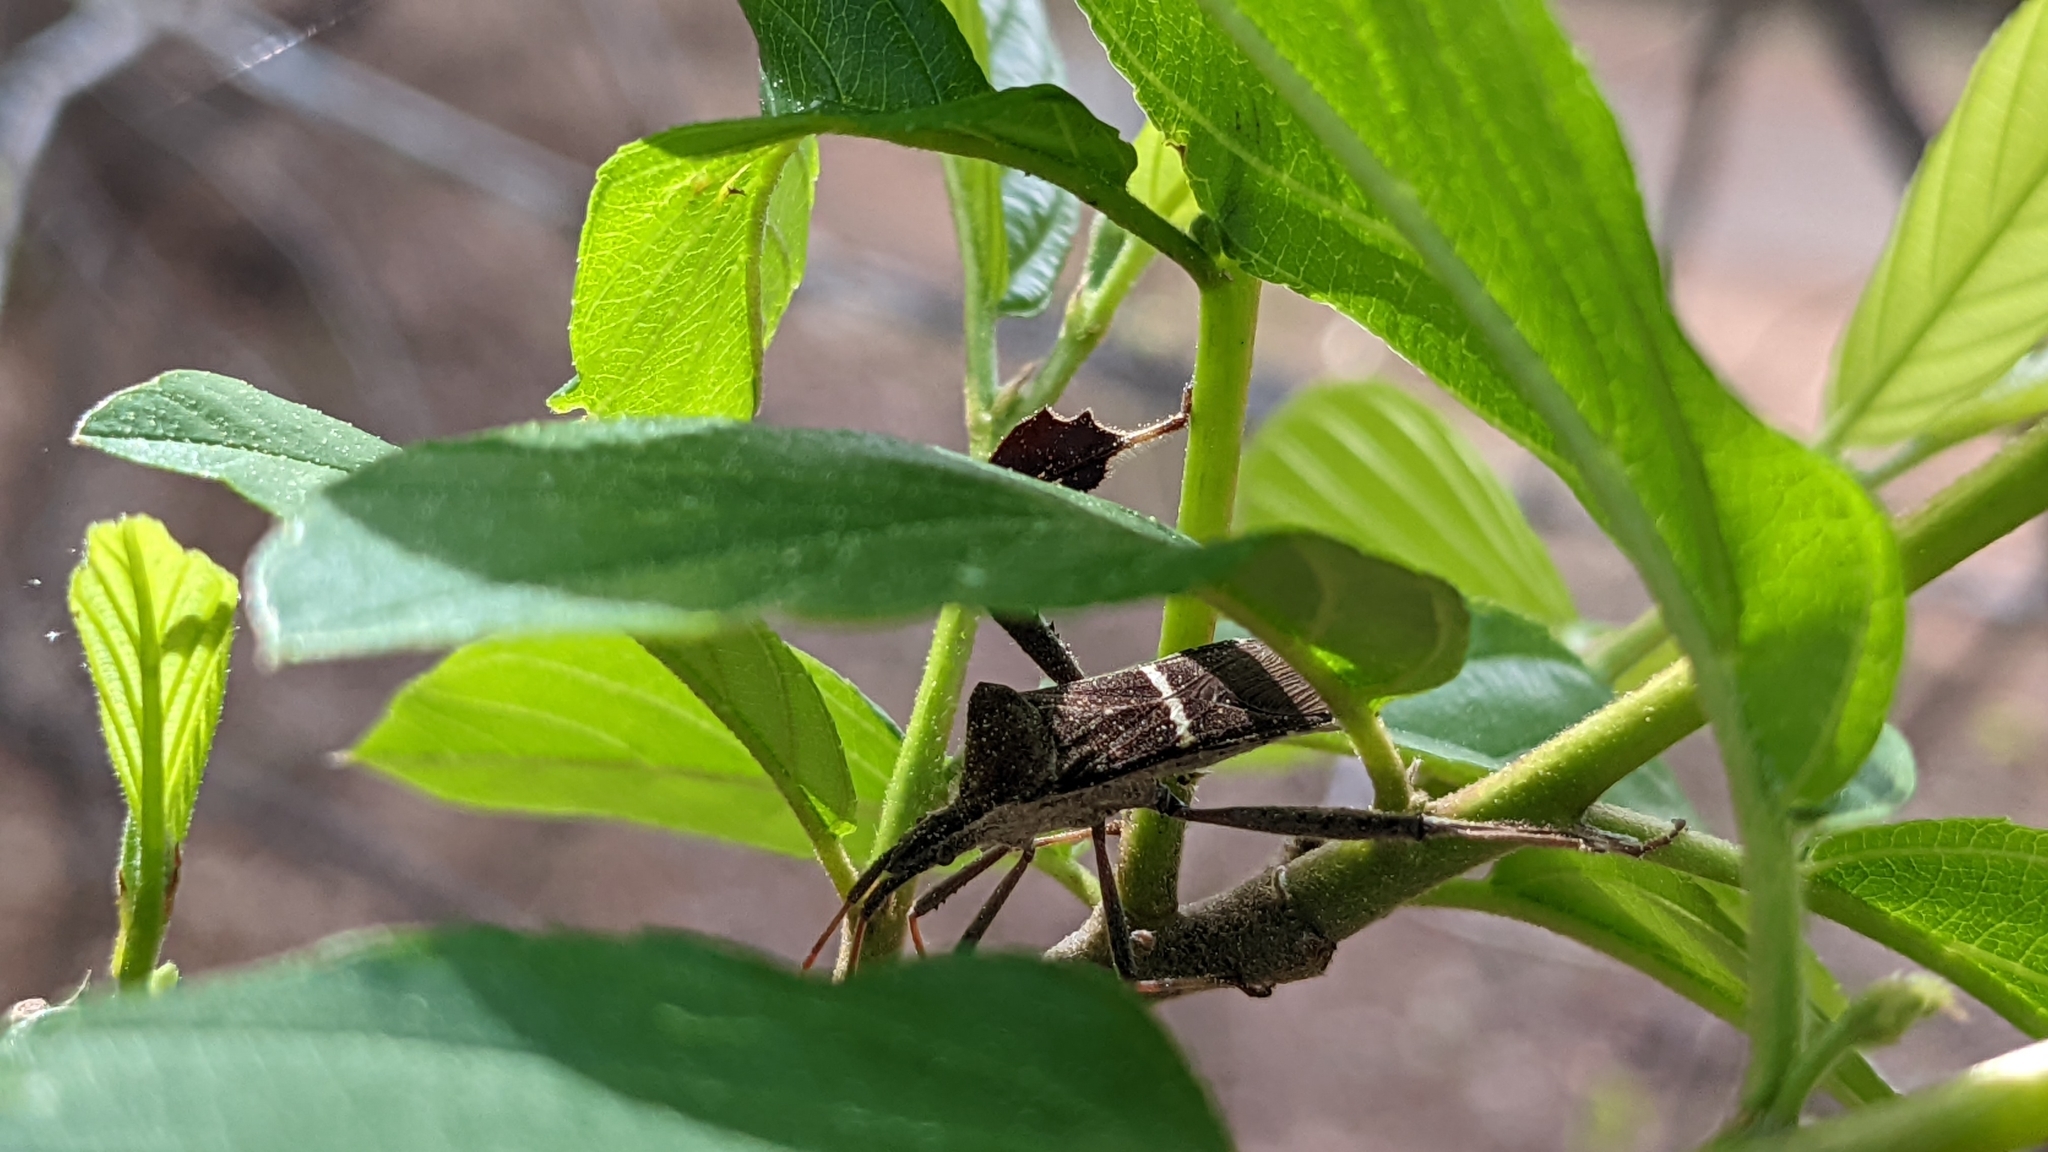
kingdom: Animalia
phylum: Arthropoda
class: Insecta
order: Hemiptera
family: Coreidae
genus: Leptoglossus
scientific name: Leptoglossus phyllopus
